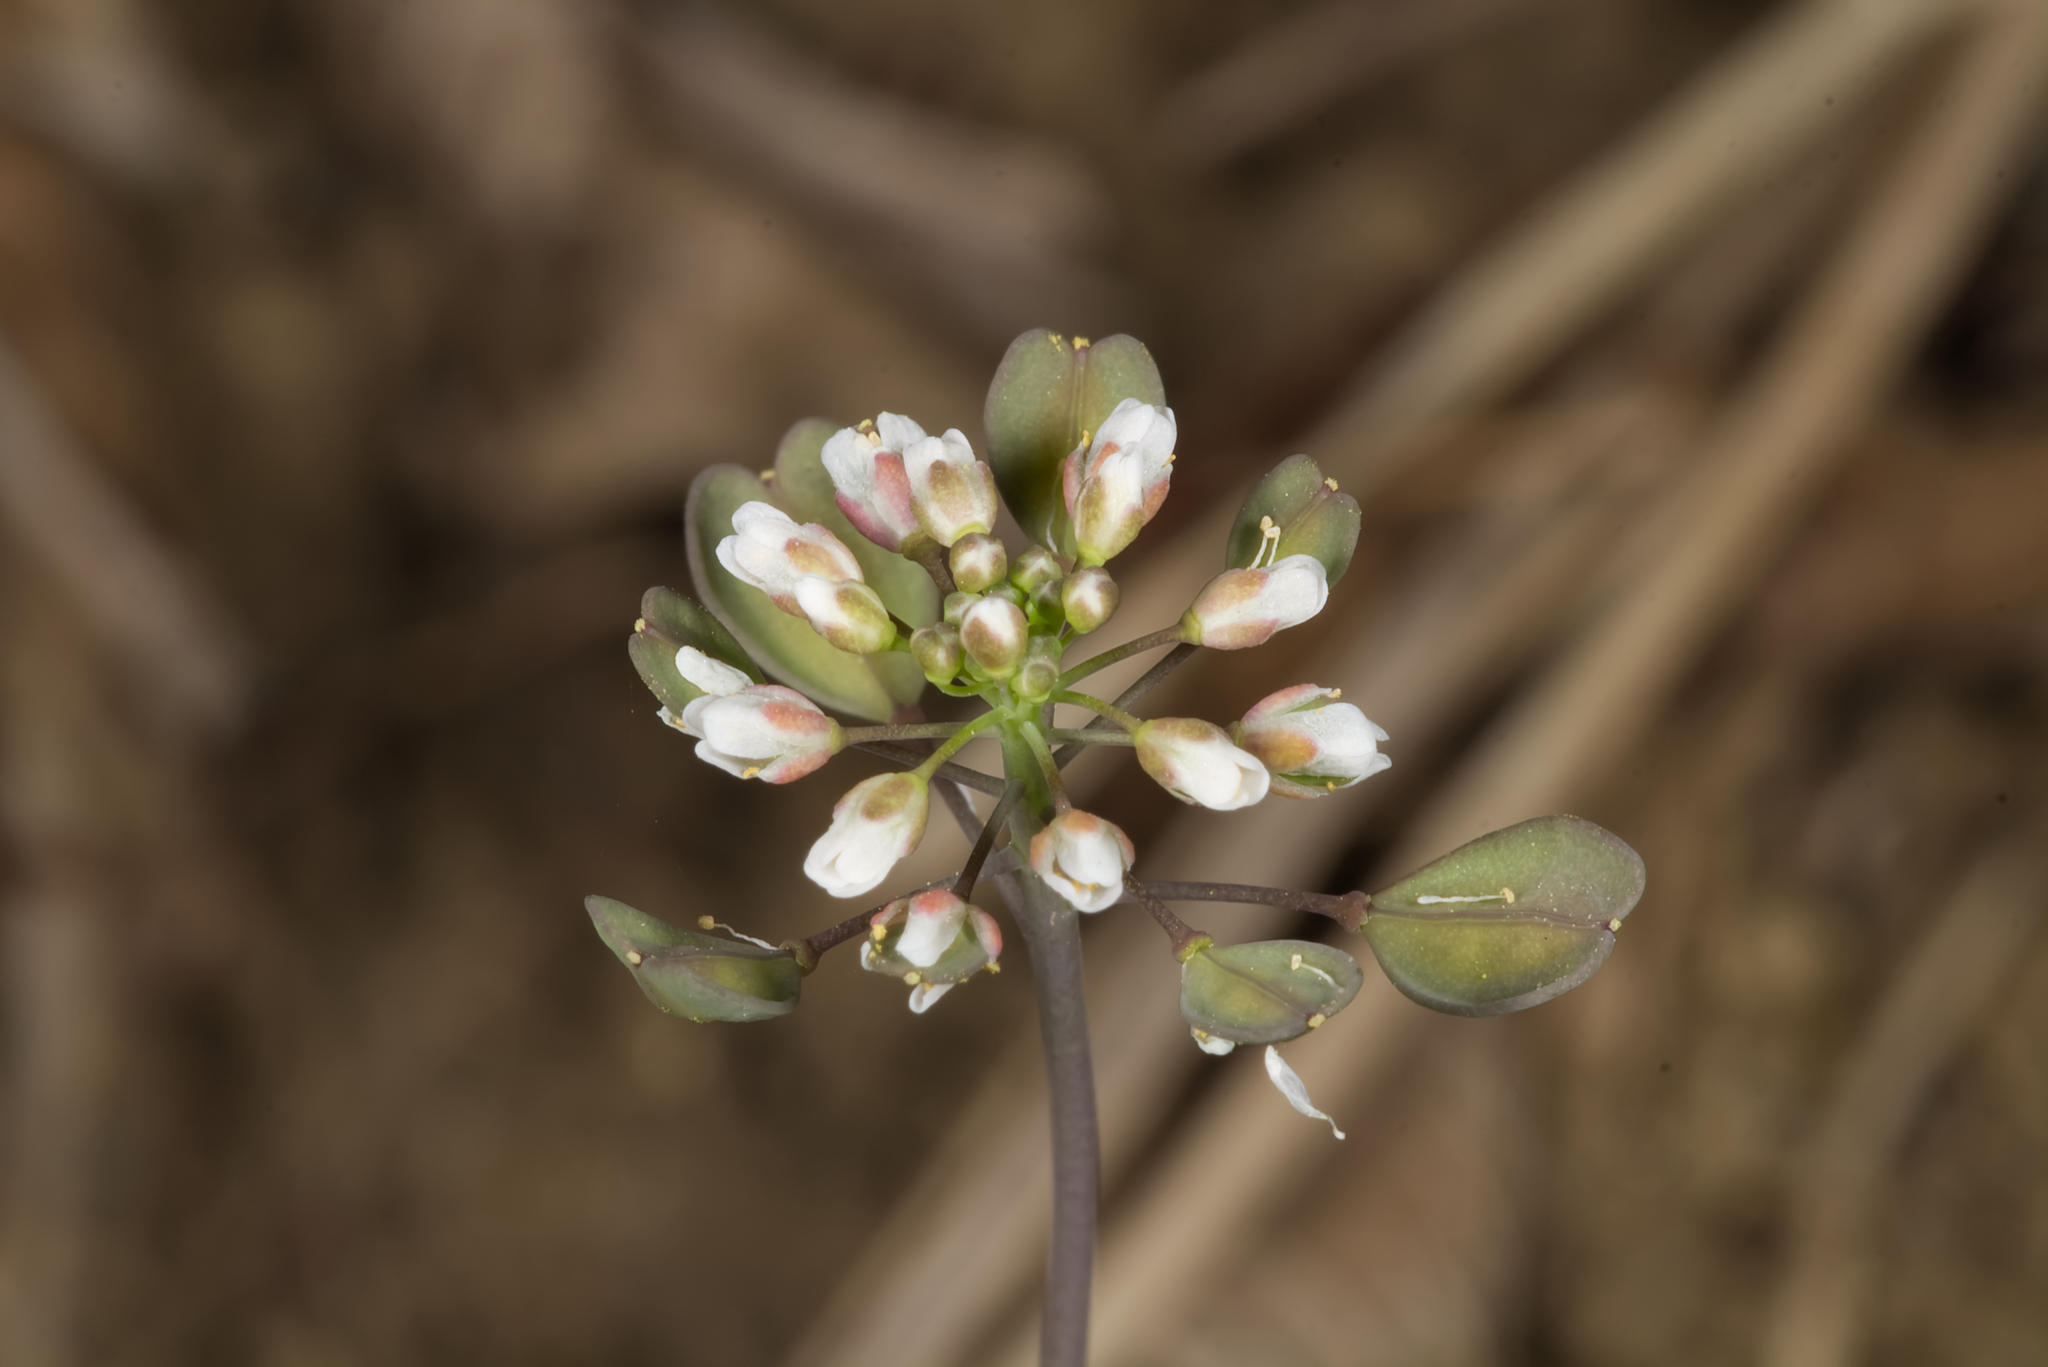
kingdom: Plantae
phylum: Tracheophyta
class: Magnoliopsida
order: Brassicales
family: Brassicaceae
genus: Noccaea
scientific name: Noccaea perfoliata
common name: Perfoliate pennycress
